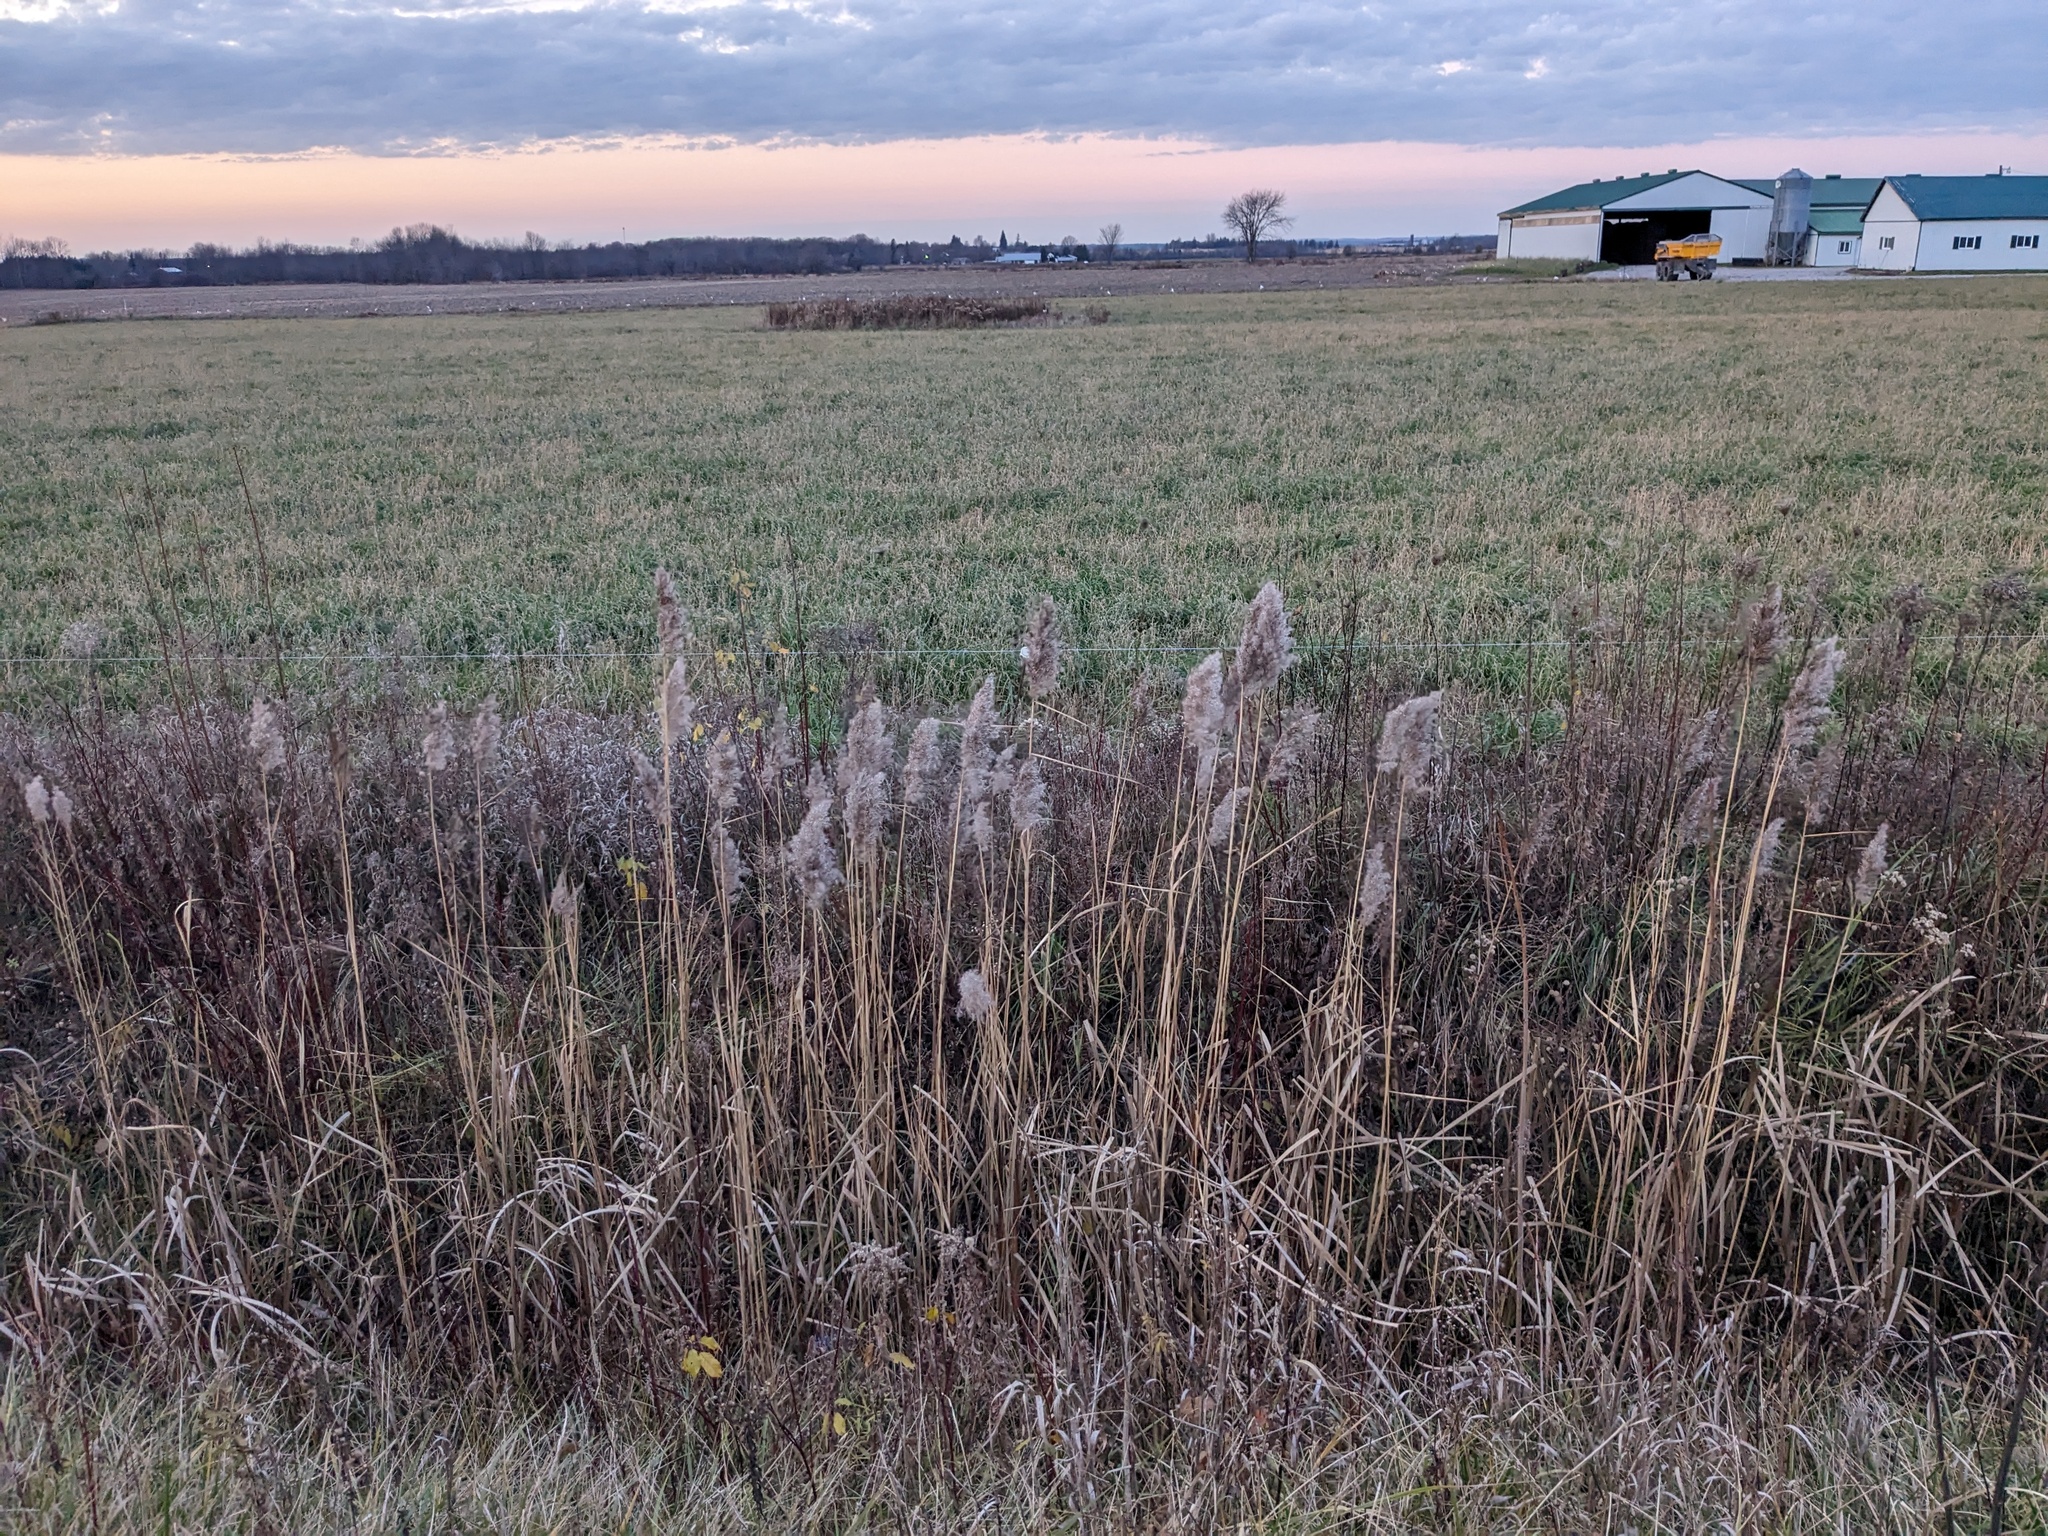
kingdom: Plantae
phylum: Tracheophyta
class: Liliopsida
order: Poales
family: Poaceae
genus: Phragmites
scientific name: Phragmites australis
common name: Common reed
